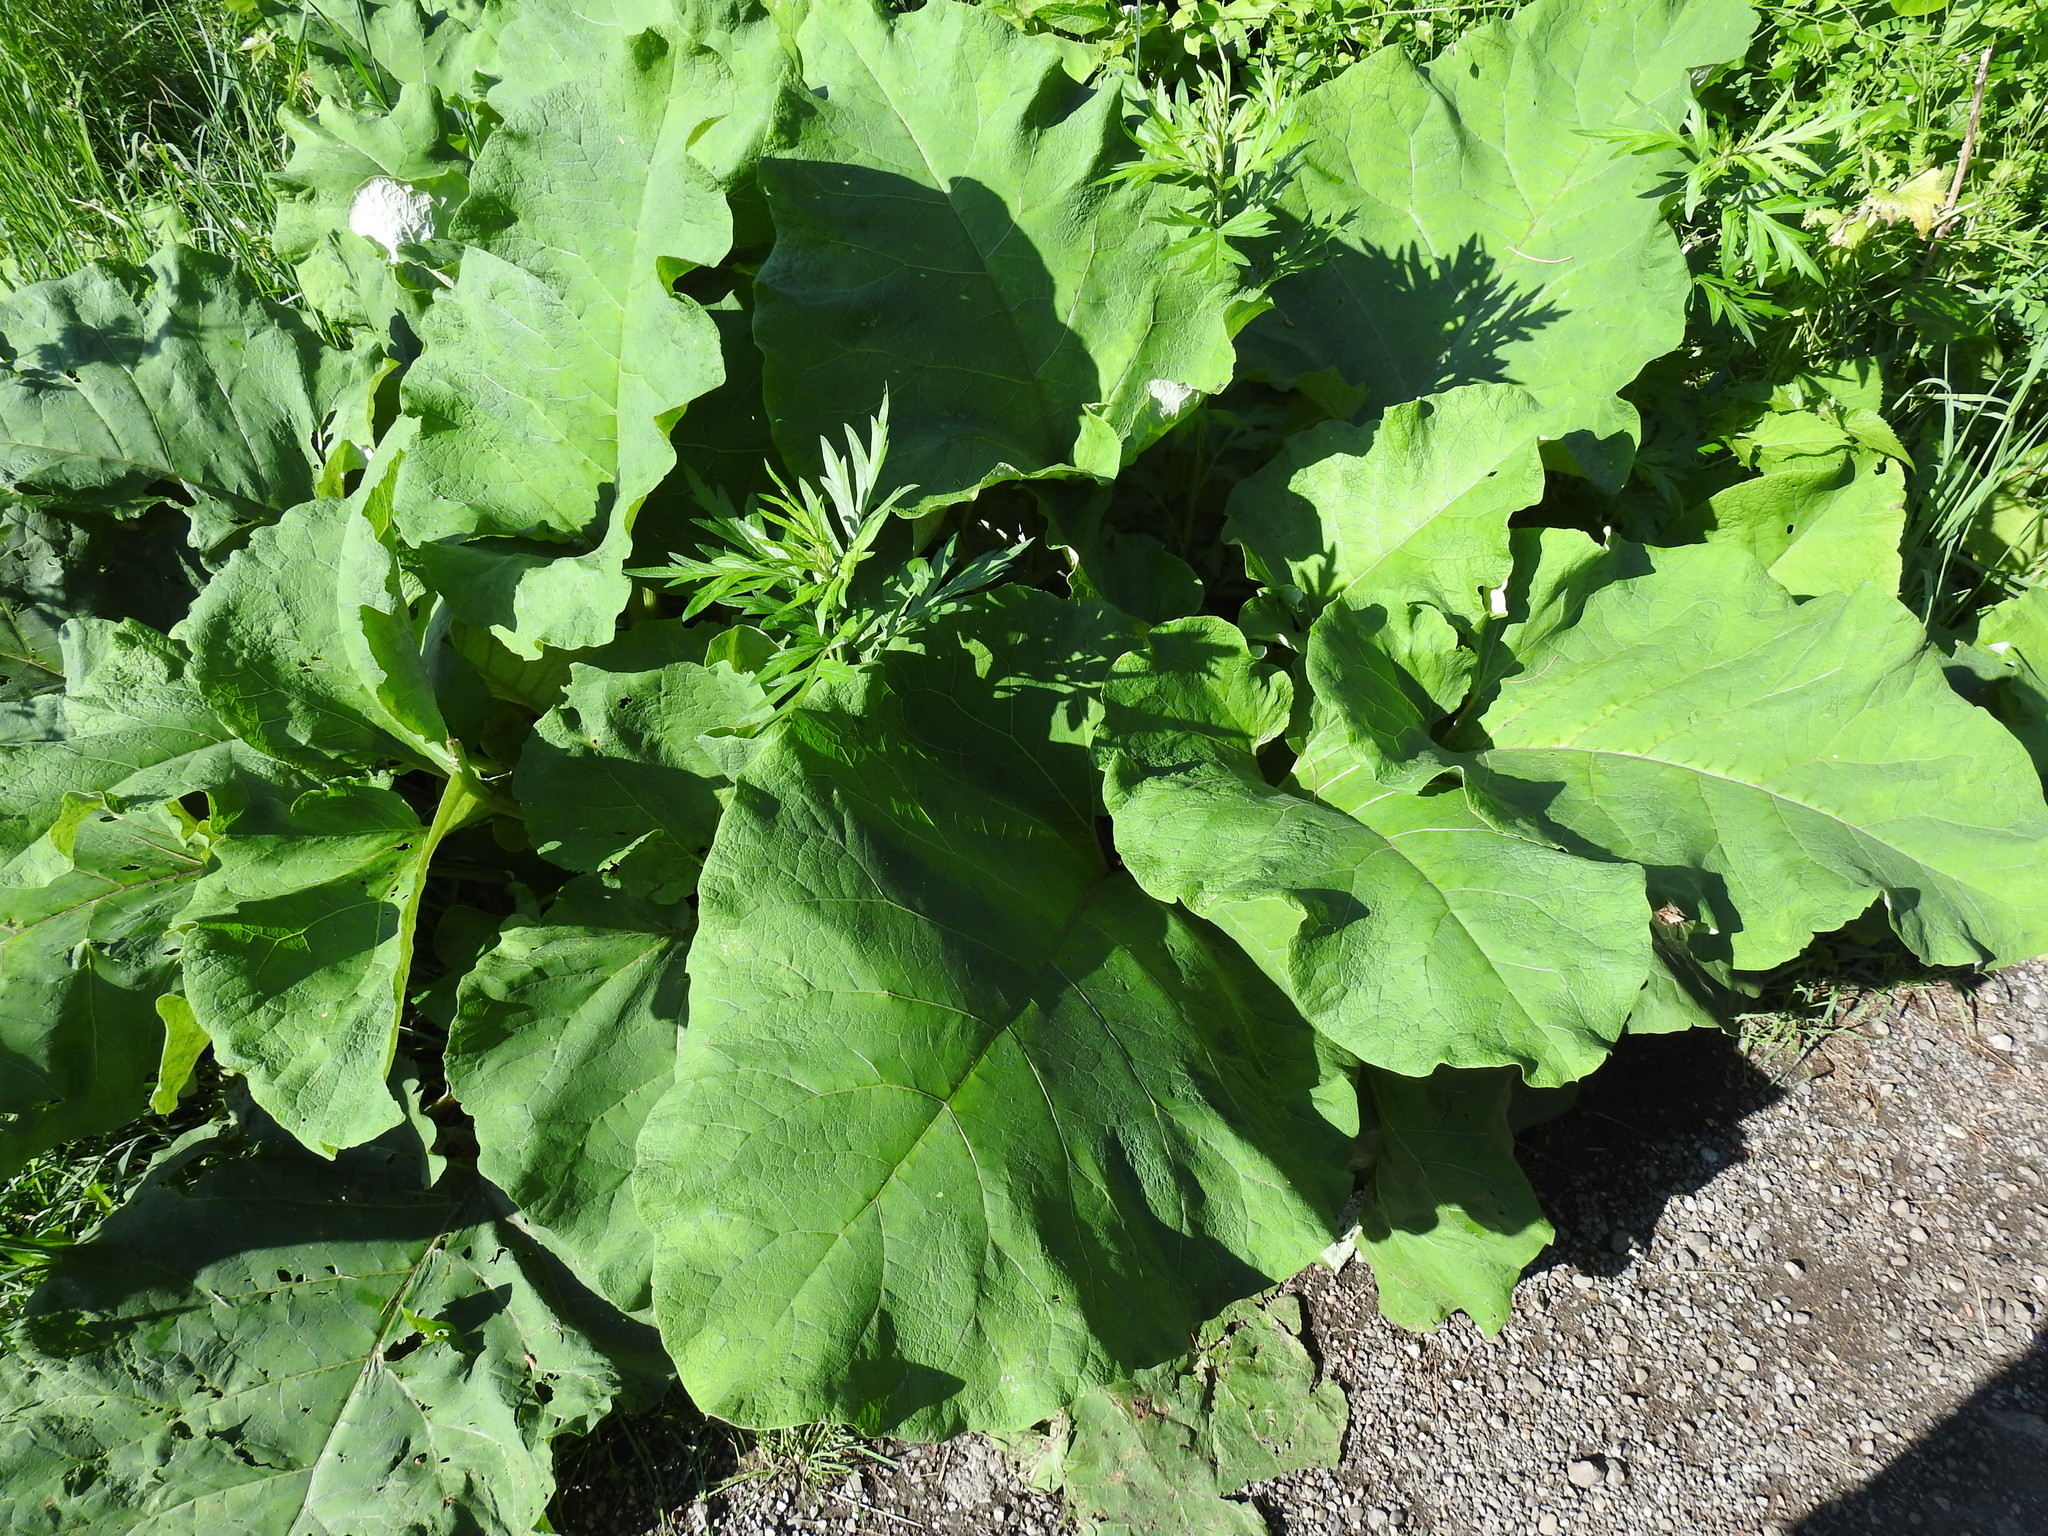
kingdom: Plantae
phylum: Tracheophyta
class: Magnoliopsida
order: Asterales
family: Asteraceae
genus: Arctium
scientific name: Arctium
